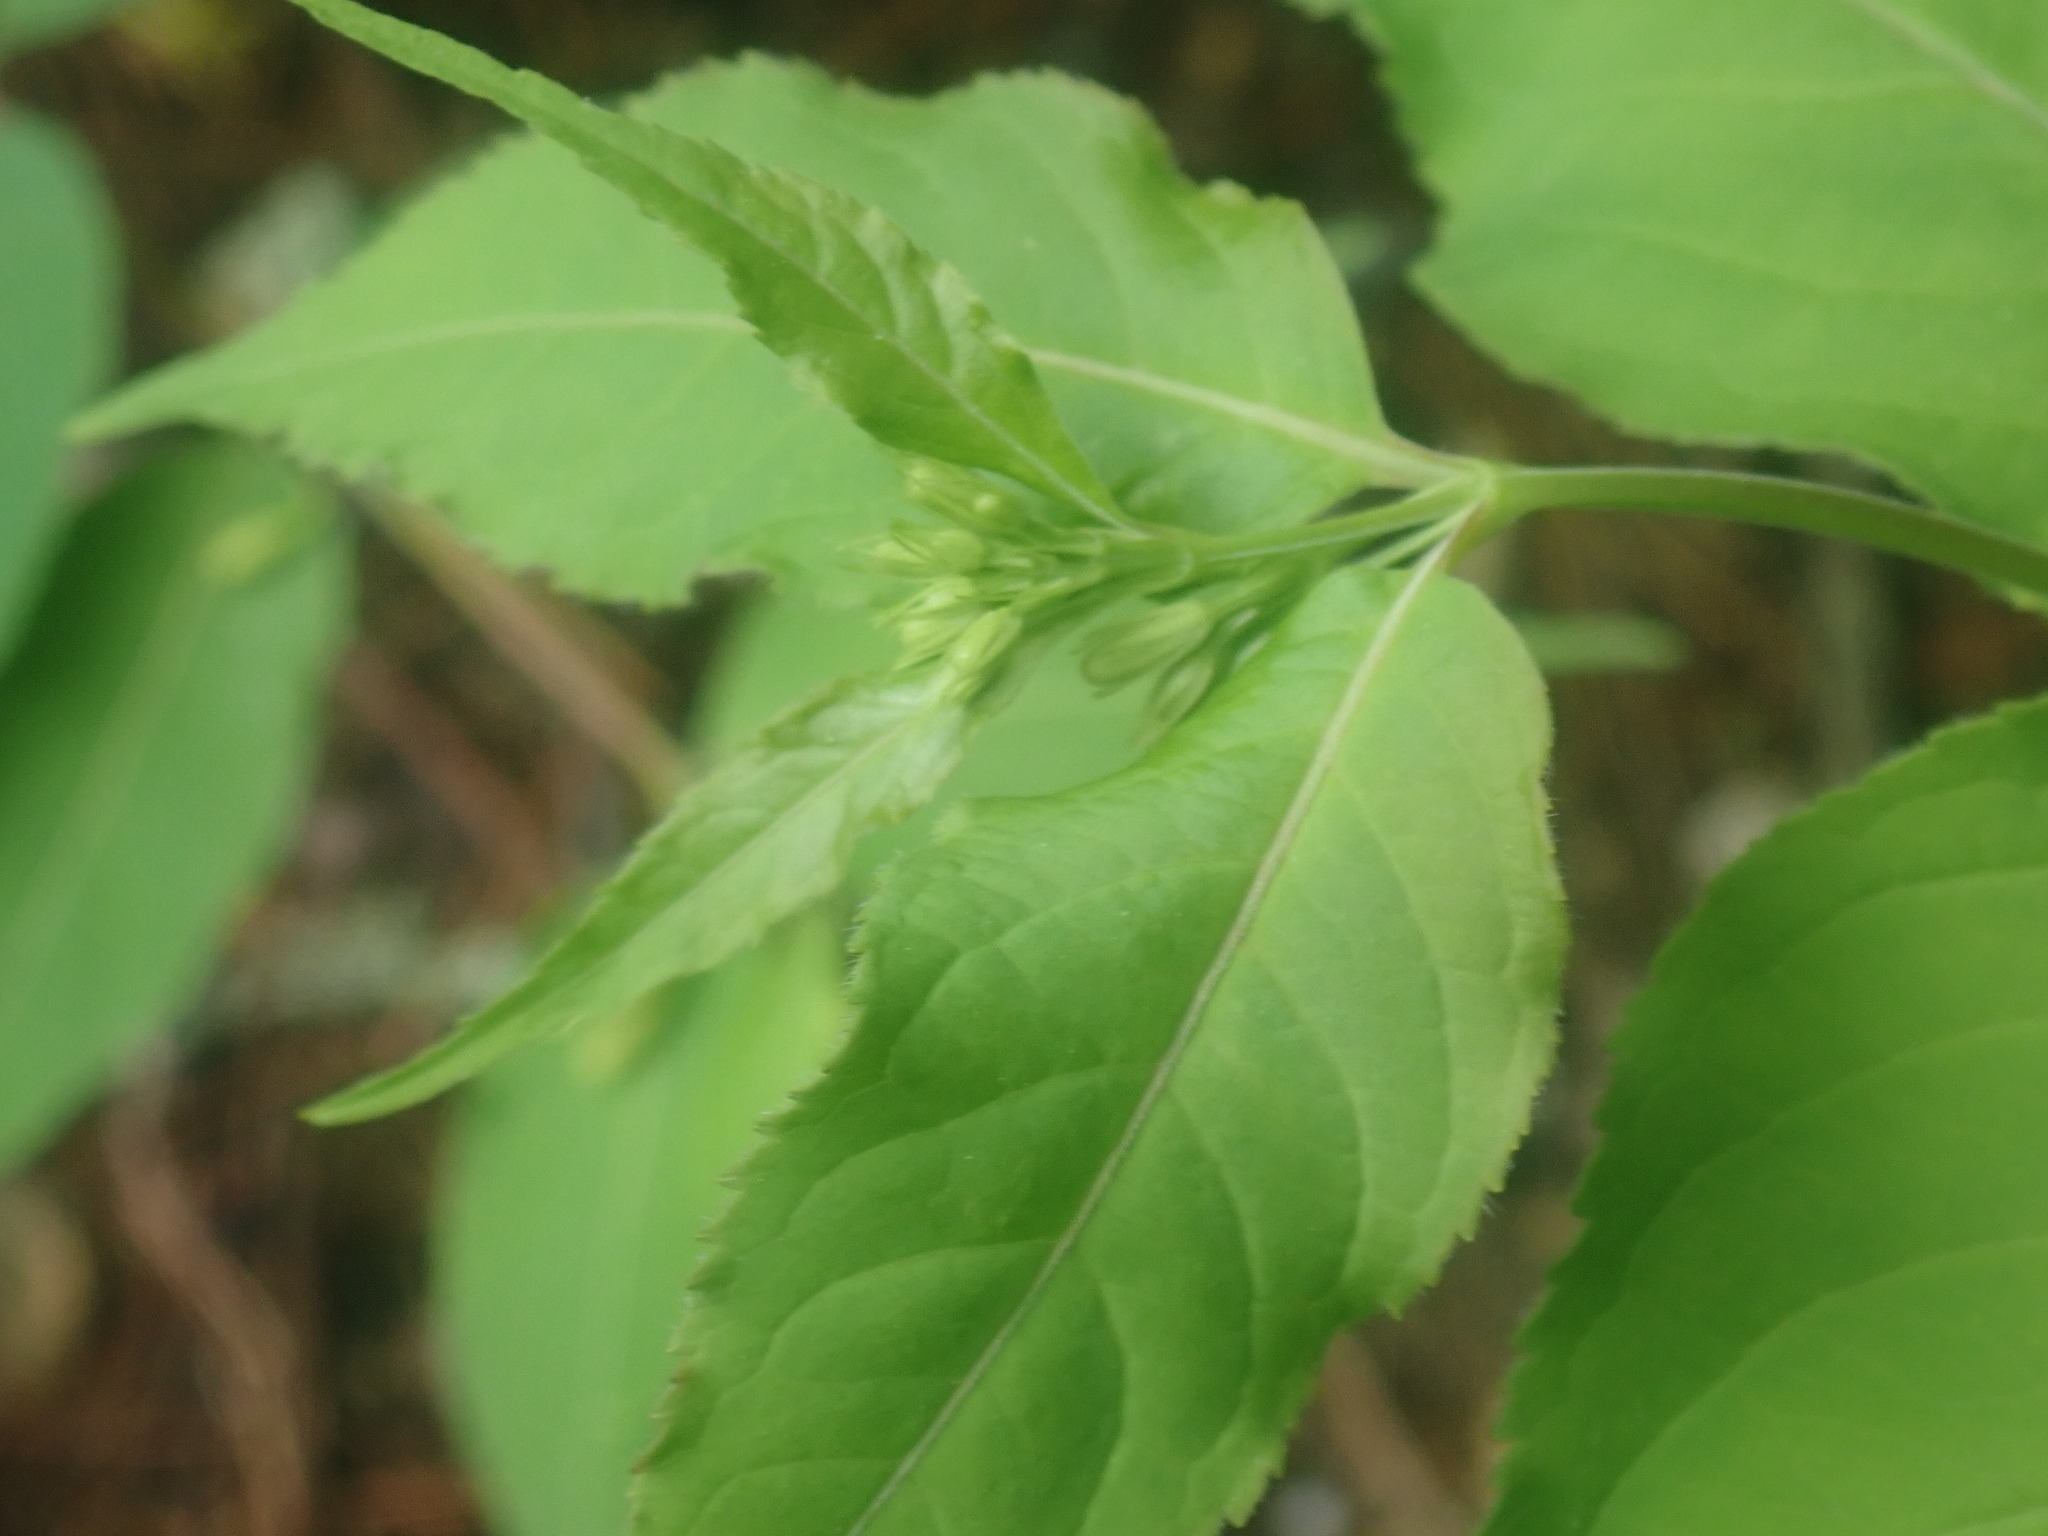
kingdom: Plantae
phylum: Tracheophyta
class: Magnoliopsida
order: Dipsacales
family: Caprifoliaceae
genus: Diervilla
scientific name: Diervilla lonicera
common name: Bush-honeysuckle
